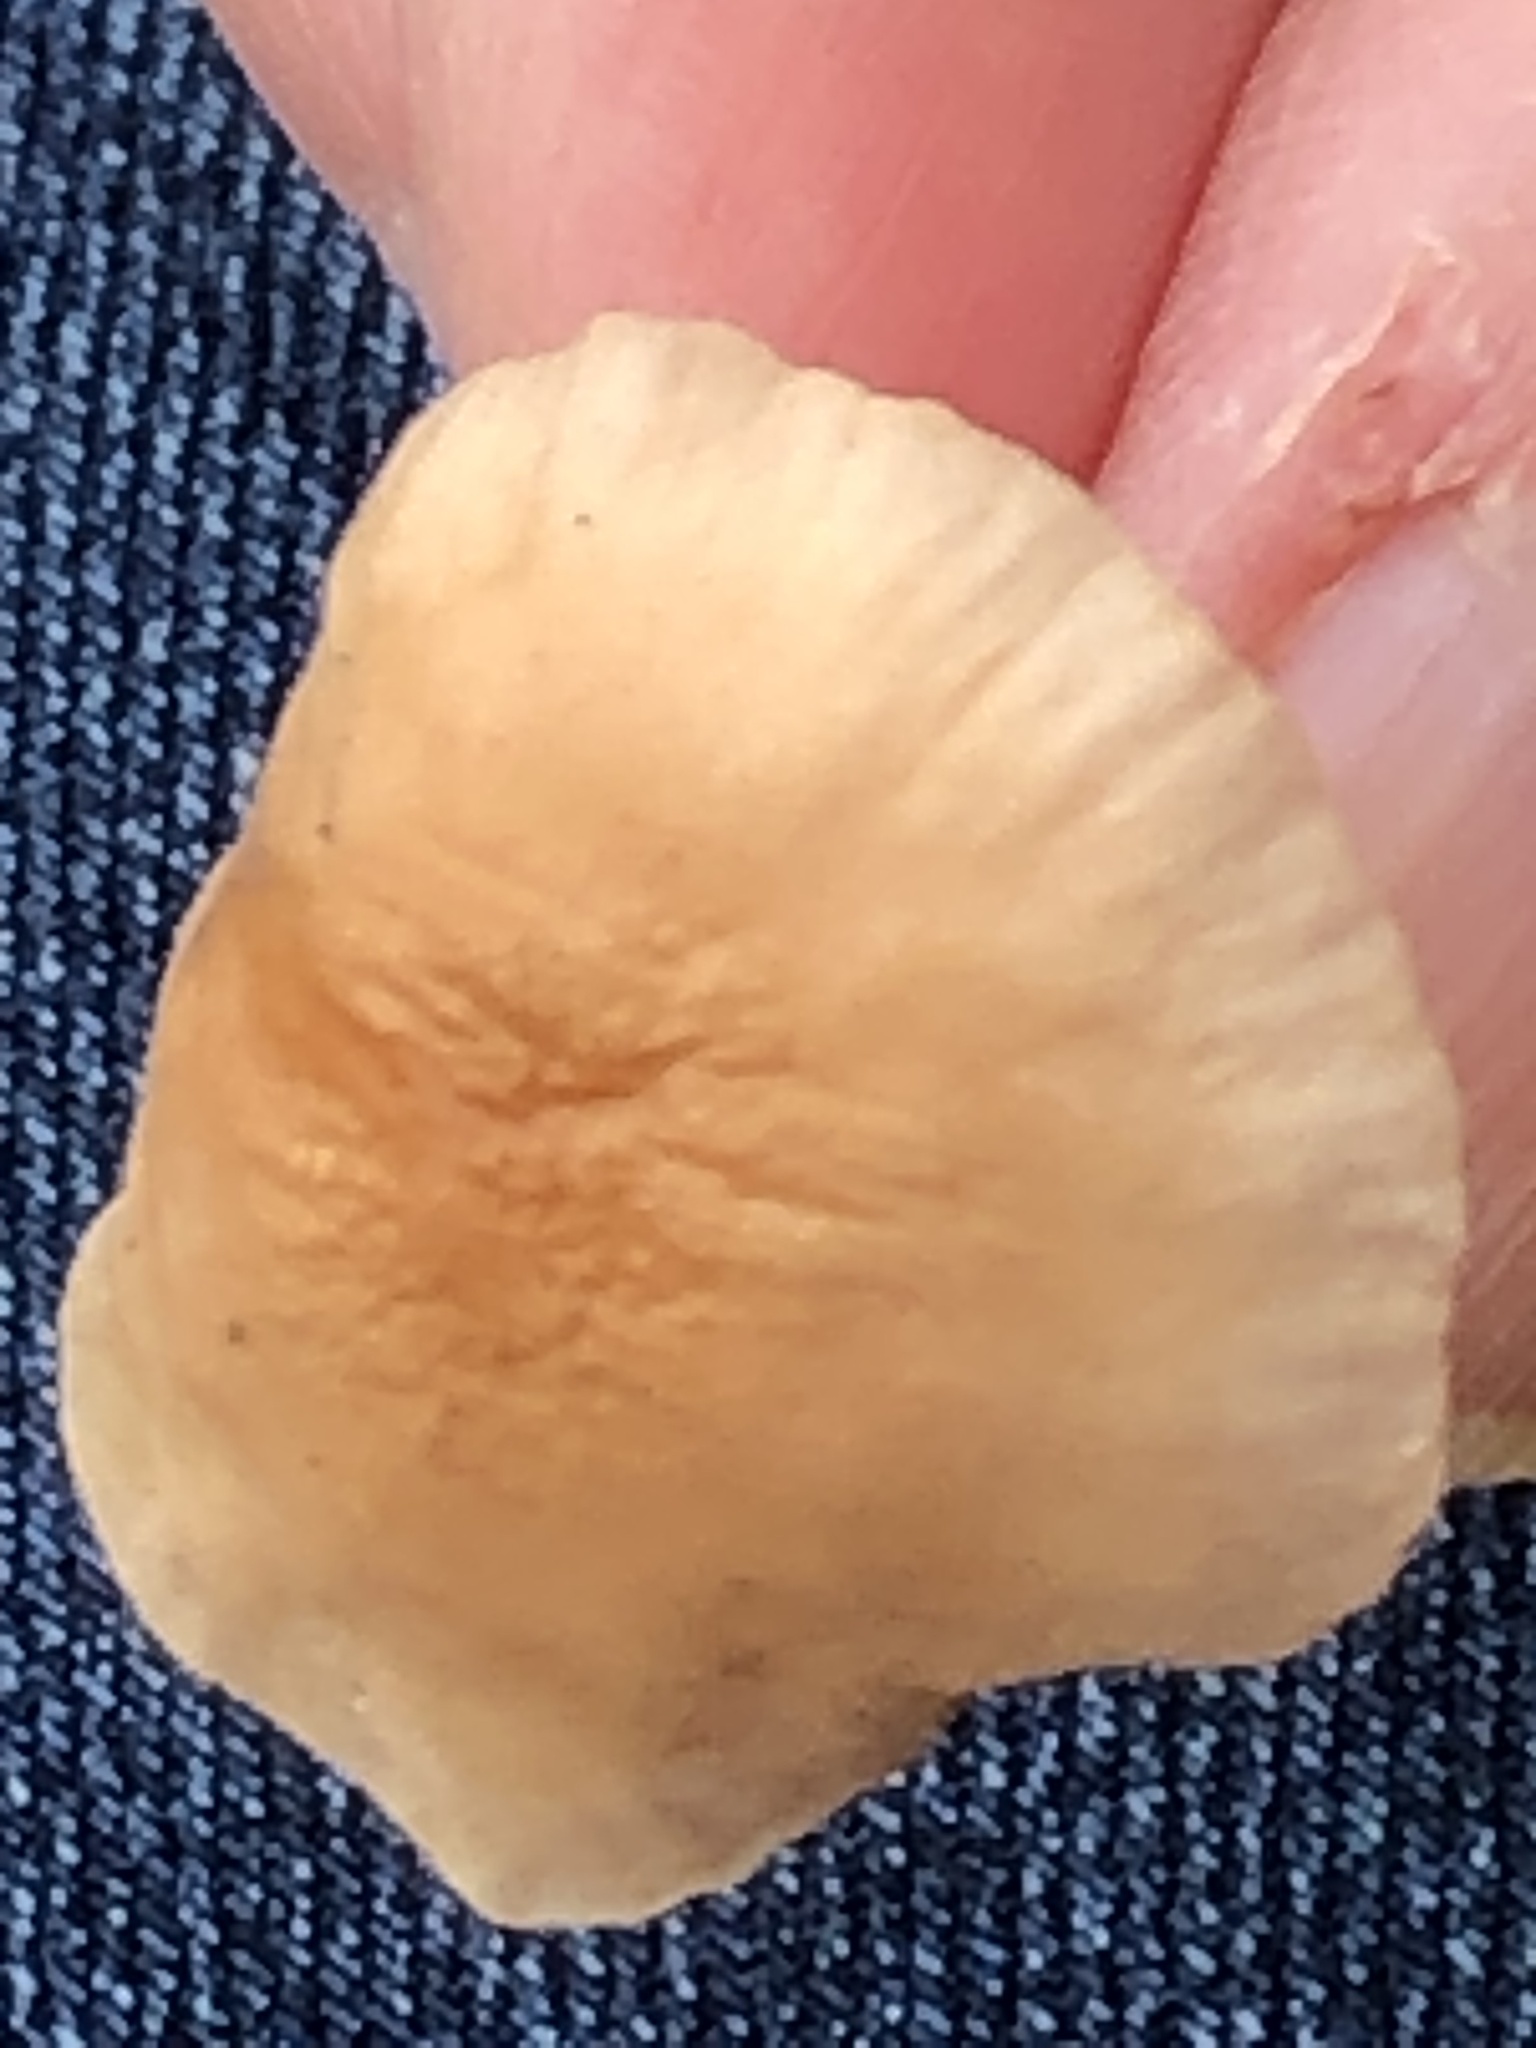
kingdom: Fungi
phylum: Basidiomycota
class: Agaricomycetes
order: Agaricales
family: Omphalotaceae
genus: Mycetinis
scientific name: Mycetinis scorodonius
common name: Vampires bane
